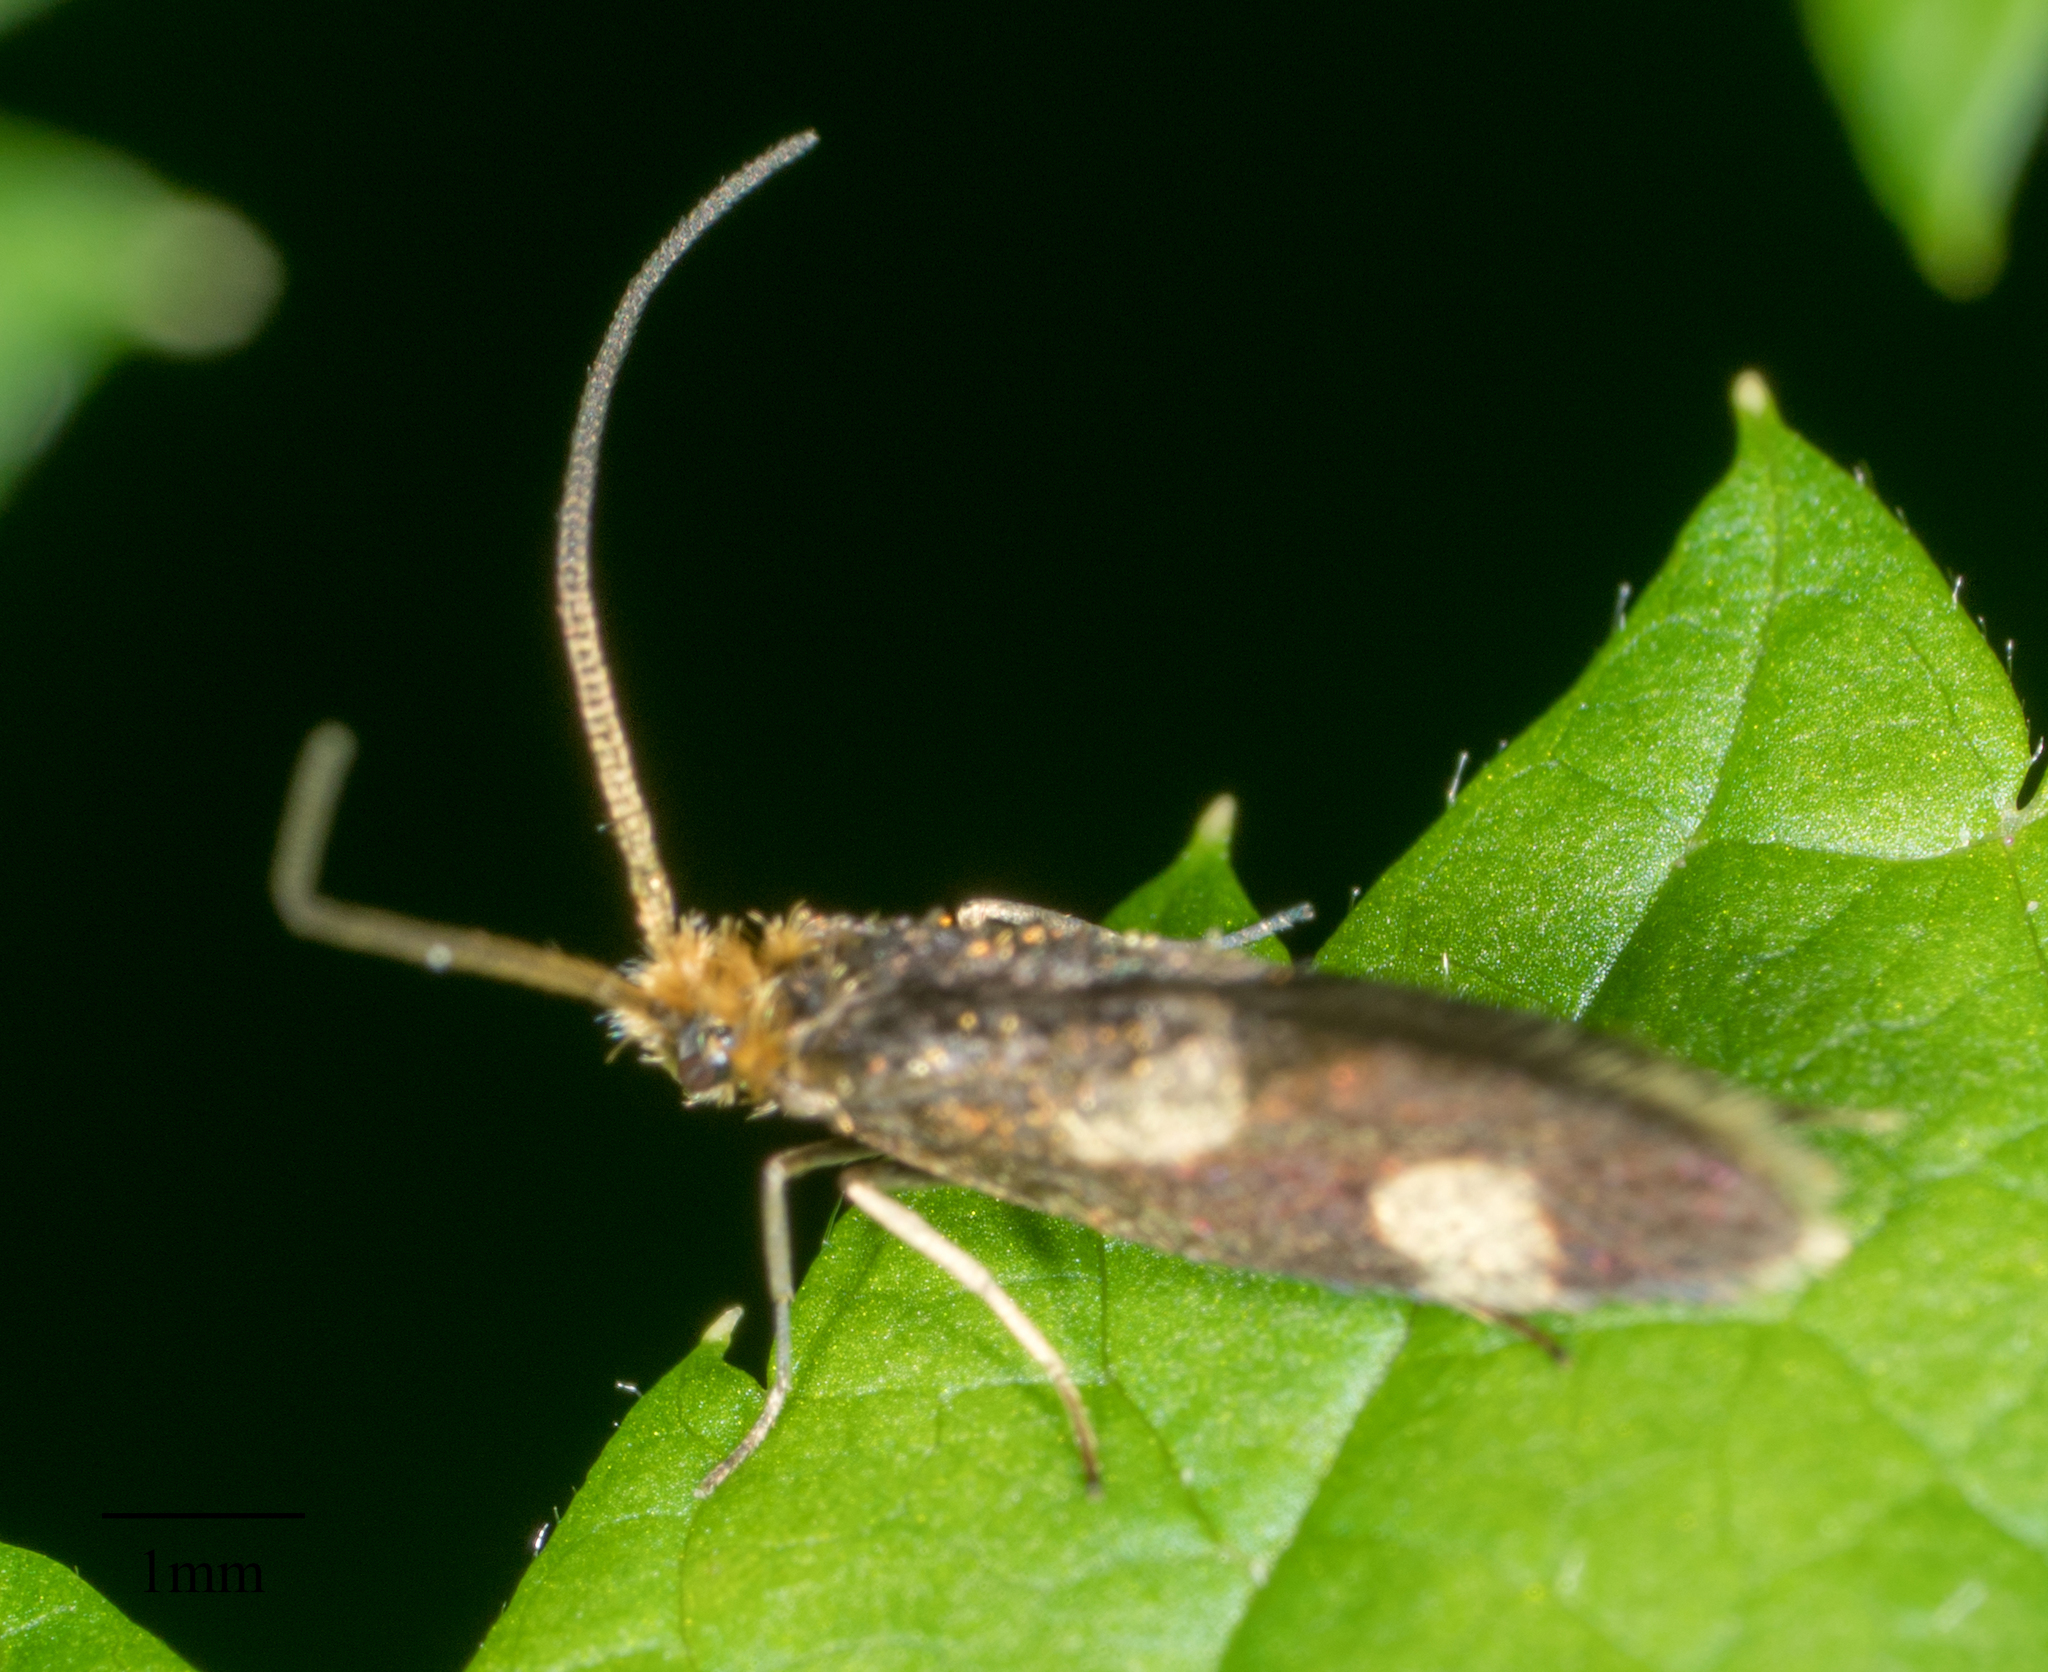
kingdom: Animalia
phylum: Arthropoda
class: Insecta
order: Lepidoptera
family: Micropterigidae
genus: Epimartyria
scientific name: Epimartyria bimaculella
